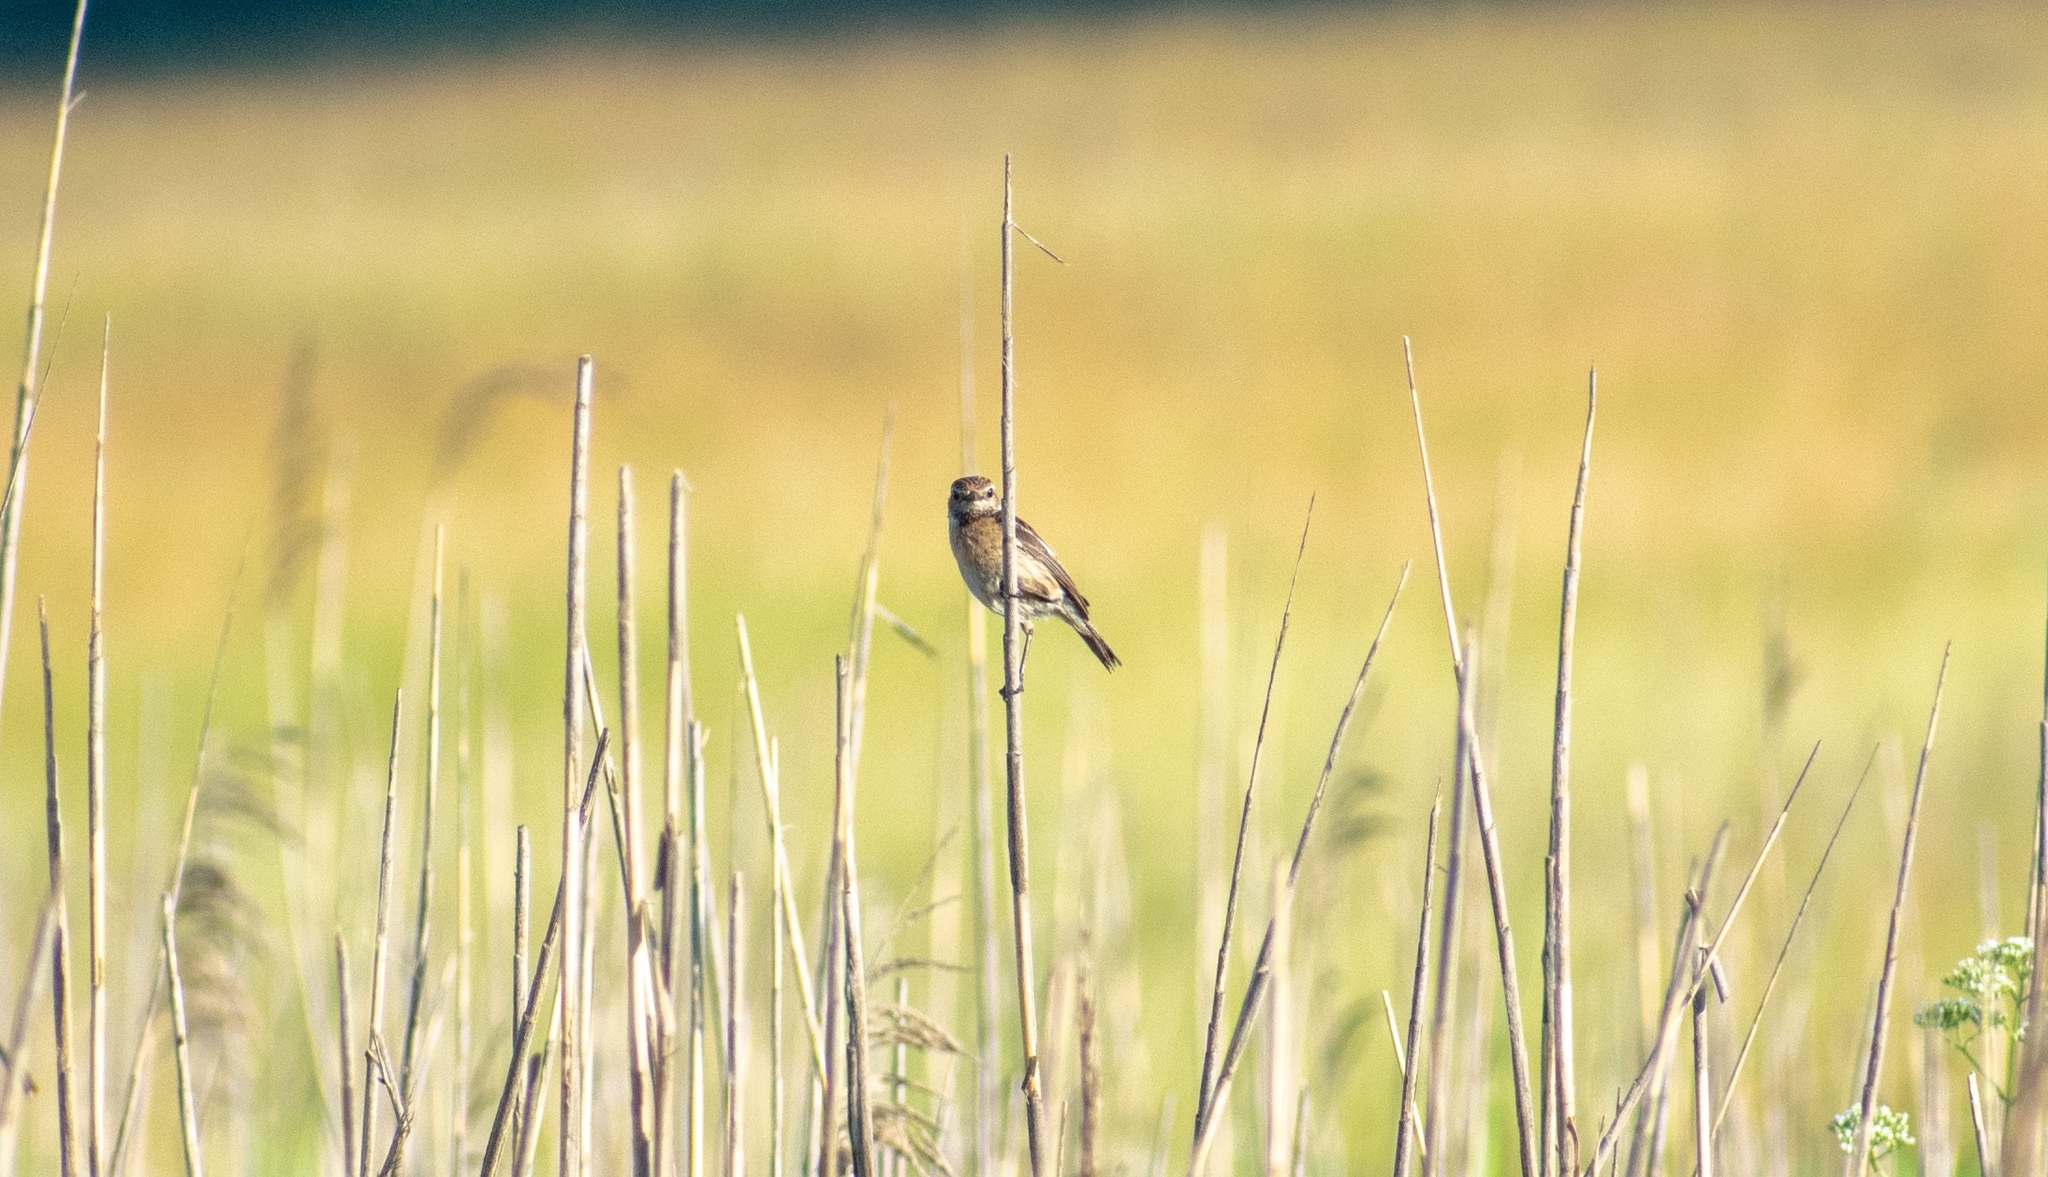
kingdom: Animalia
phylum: Chordata
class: Aves
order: Passeriformes
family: Muscicapidae
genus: Saxicola
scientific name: Saxicola rubicola
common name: European stonechat
